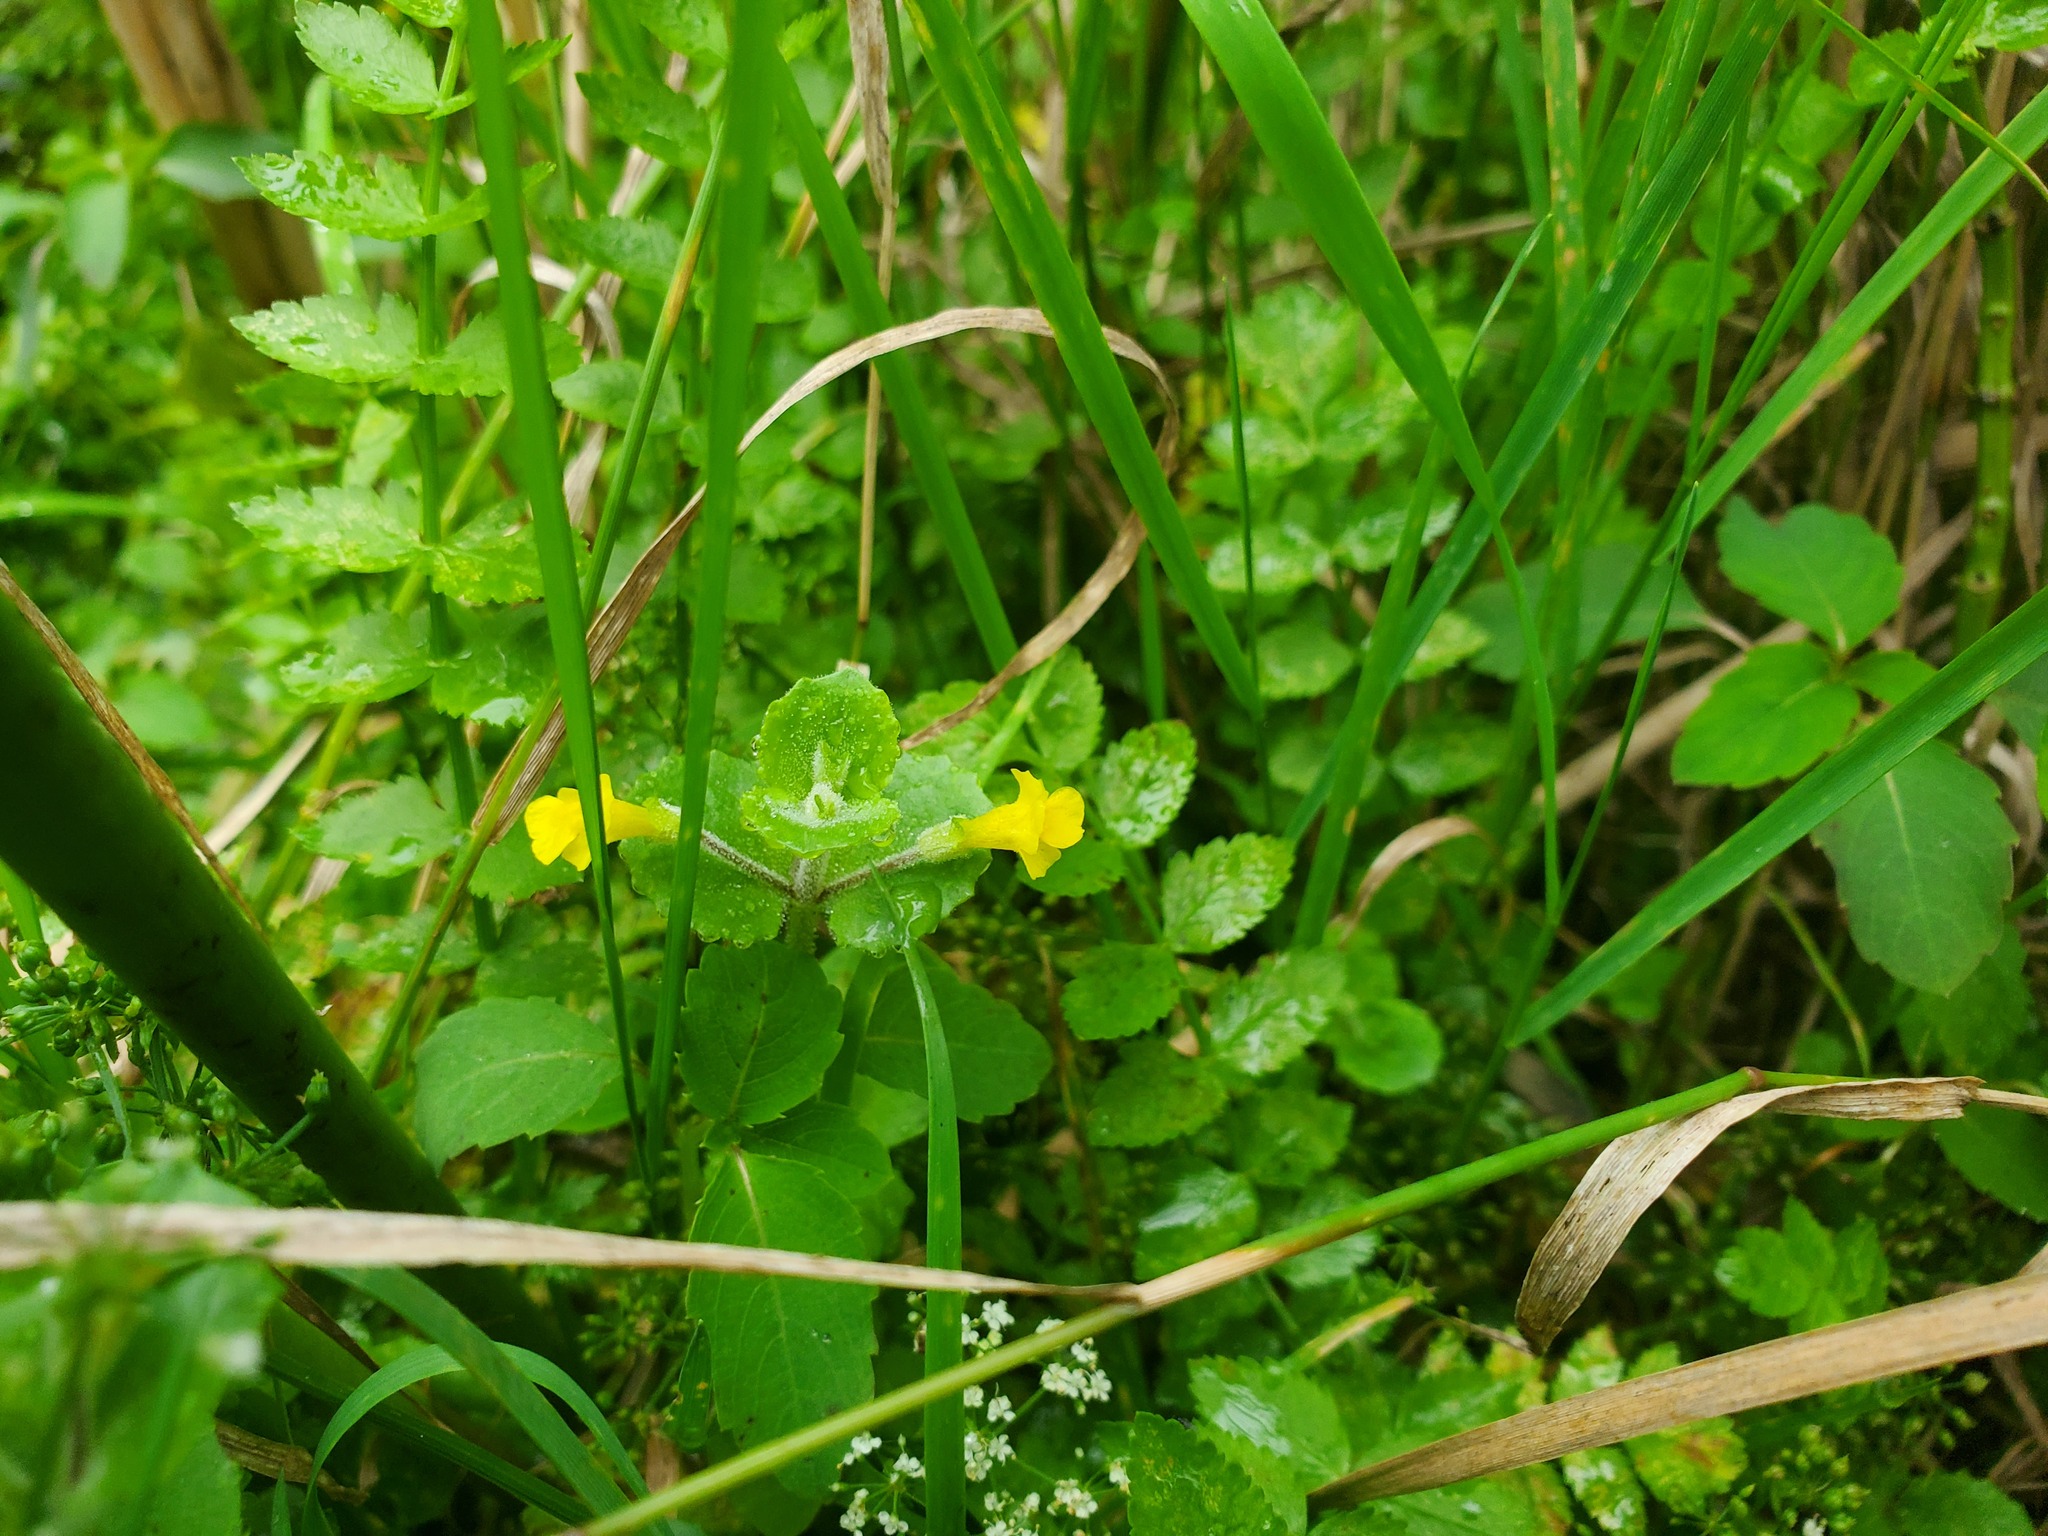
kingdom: Plantae
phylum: Tracheophyta
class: Magnoliopsida
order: Lamiales
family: Phrymaceae
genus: Erythranthe
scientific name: Erythranthe geyeri
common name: Geyer's monkeyflower
